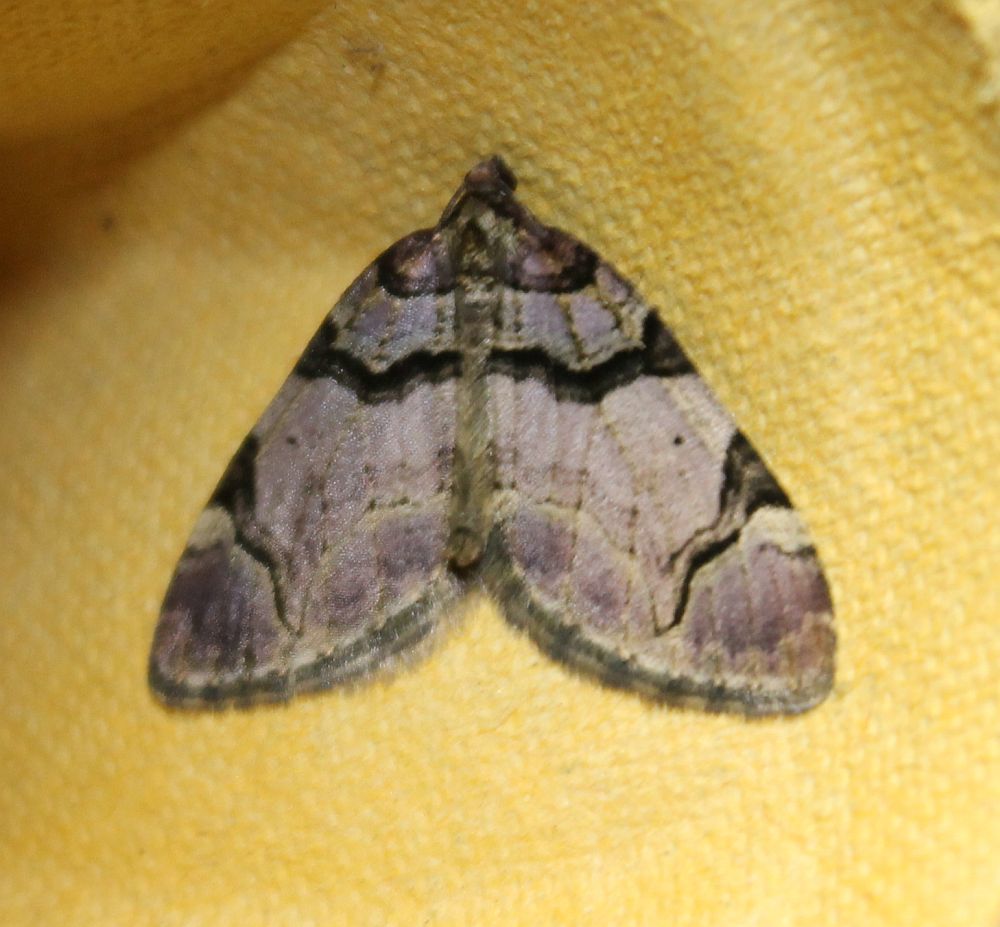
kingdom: Animalia
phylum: Arthropoda
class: Insecta
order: Lepidoptera
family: Geometridae
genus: Anticlea
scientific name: Anticlea derivata
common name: Streamer
